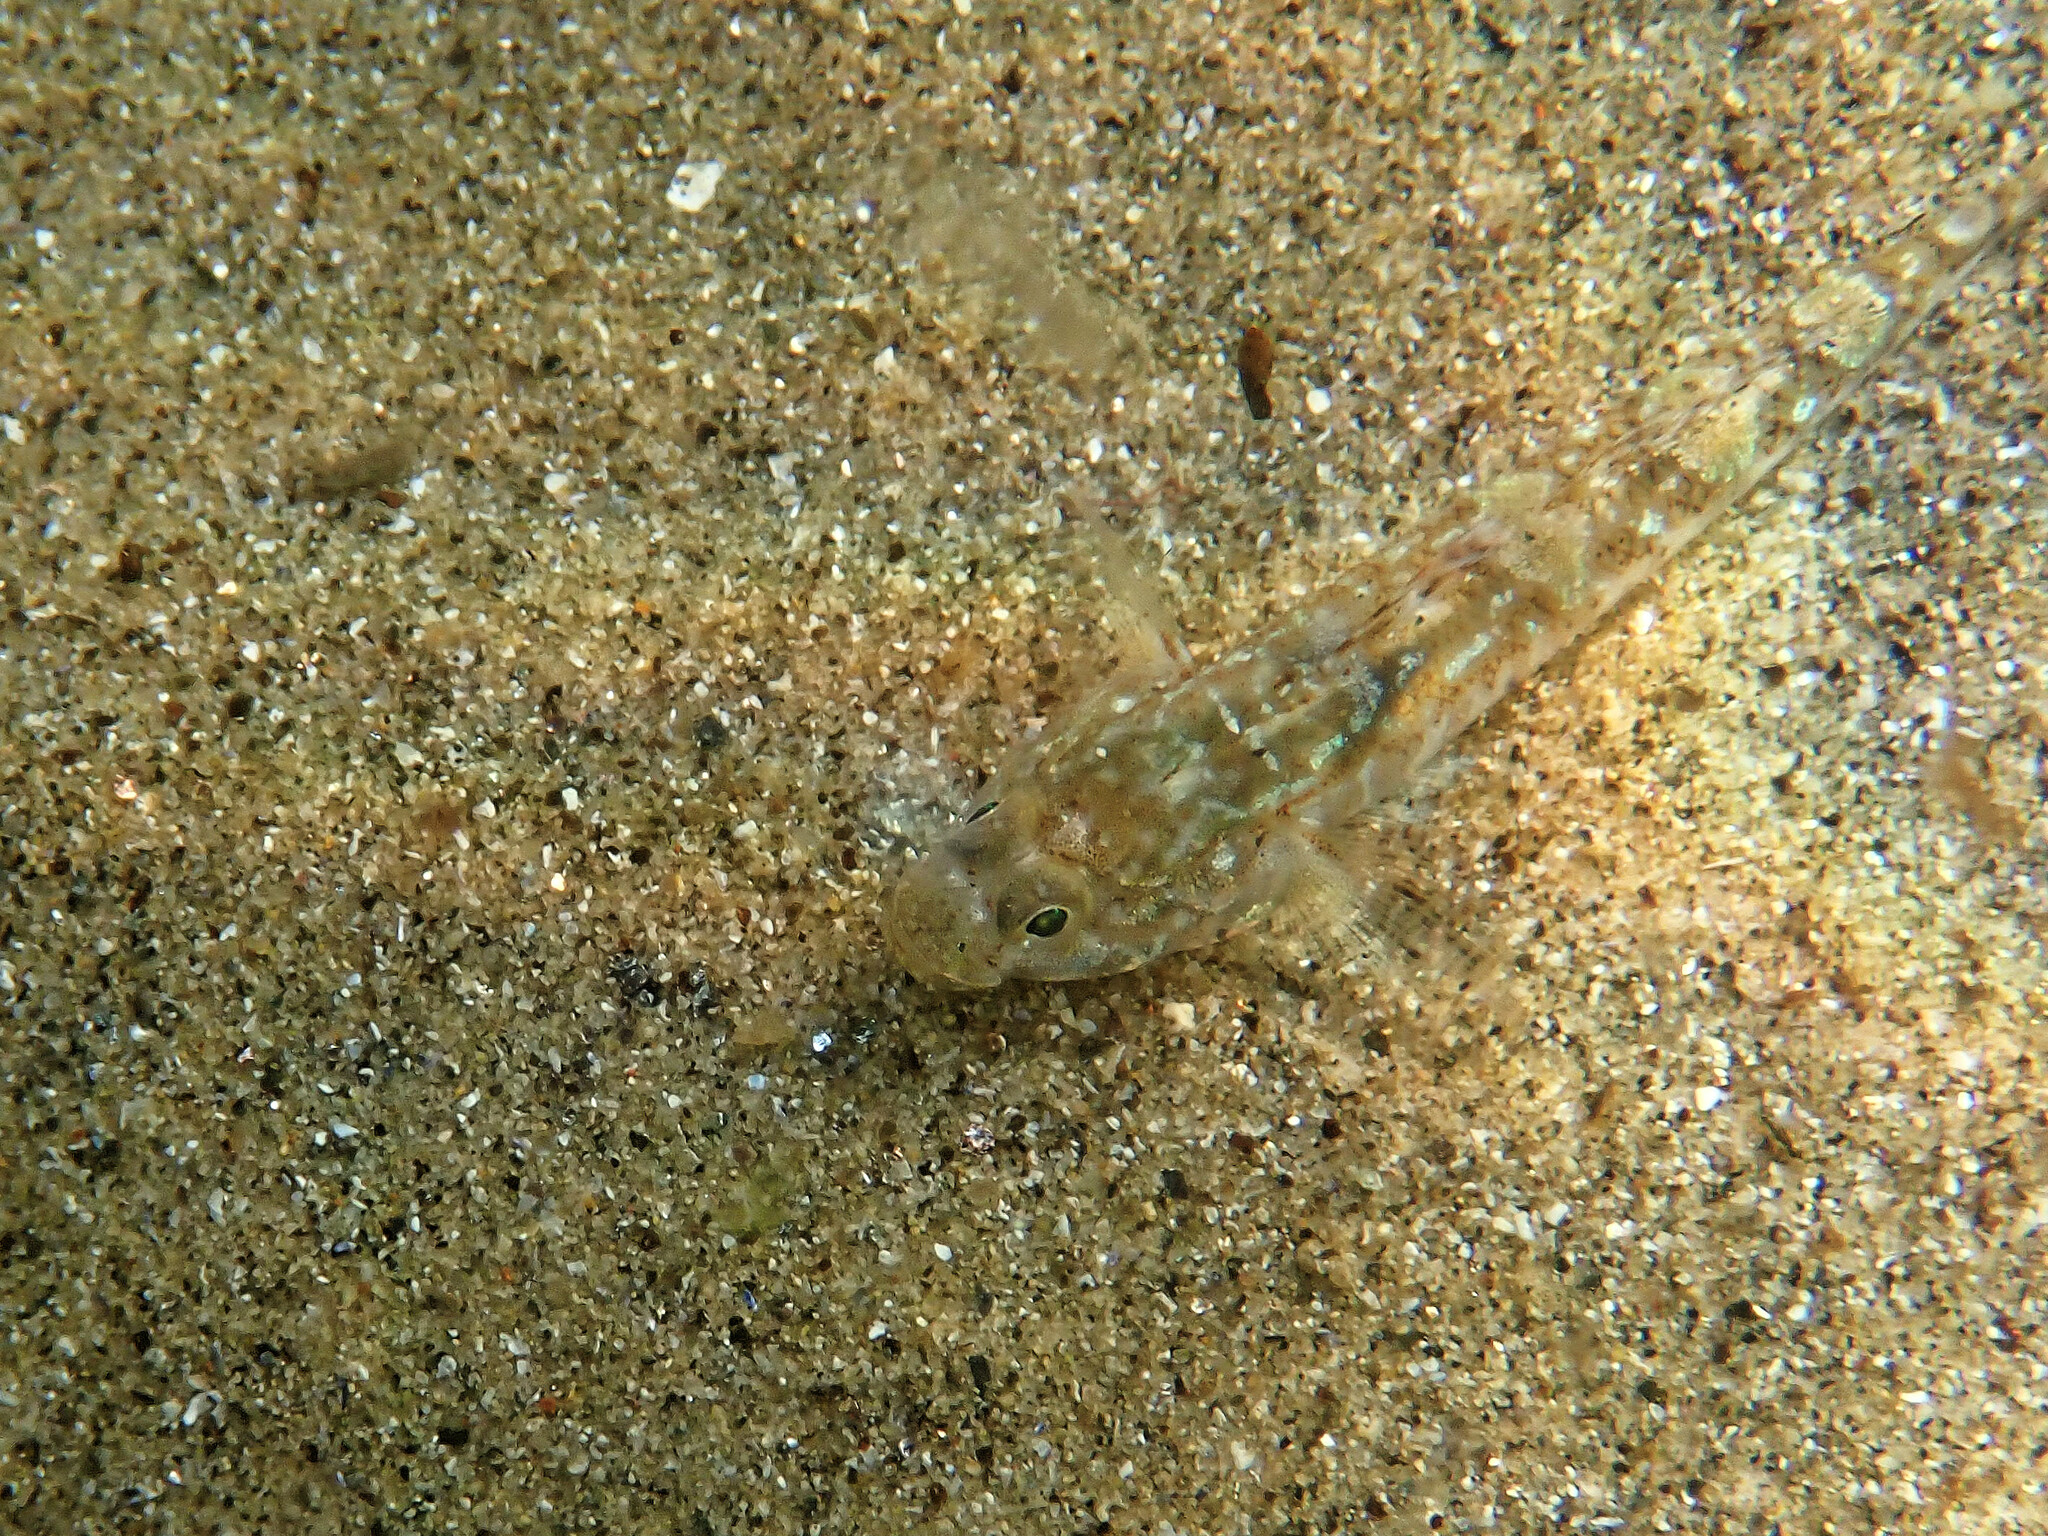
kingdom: Animalia
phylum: Chordata
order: Perciformes
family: Gobiidae
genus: Pomatoschistus
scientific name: Pomatoschistus pictus
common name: Painted goby
